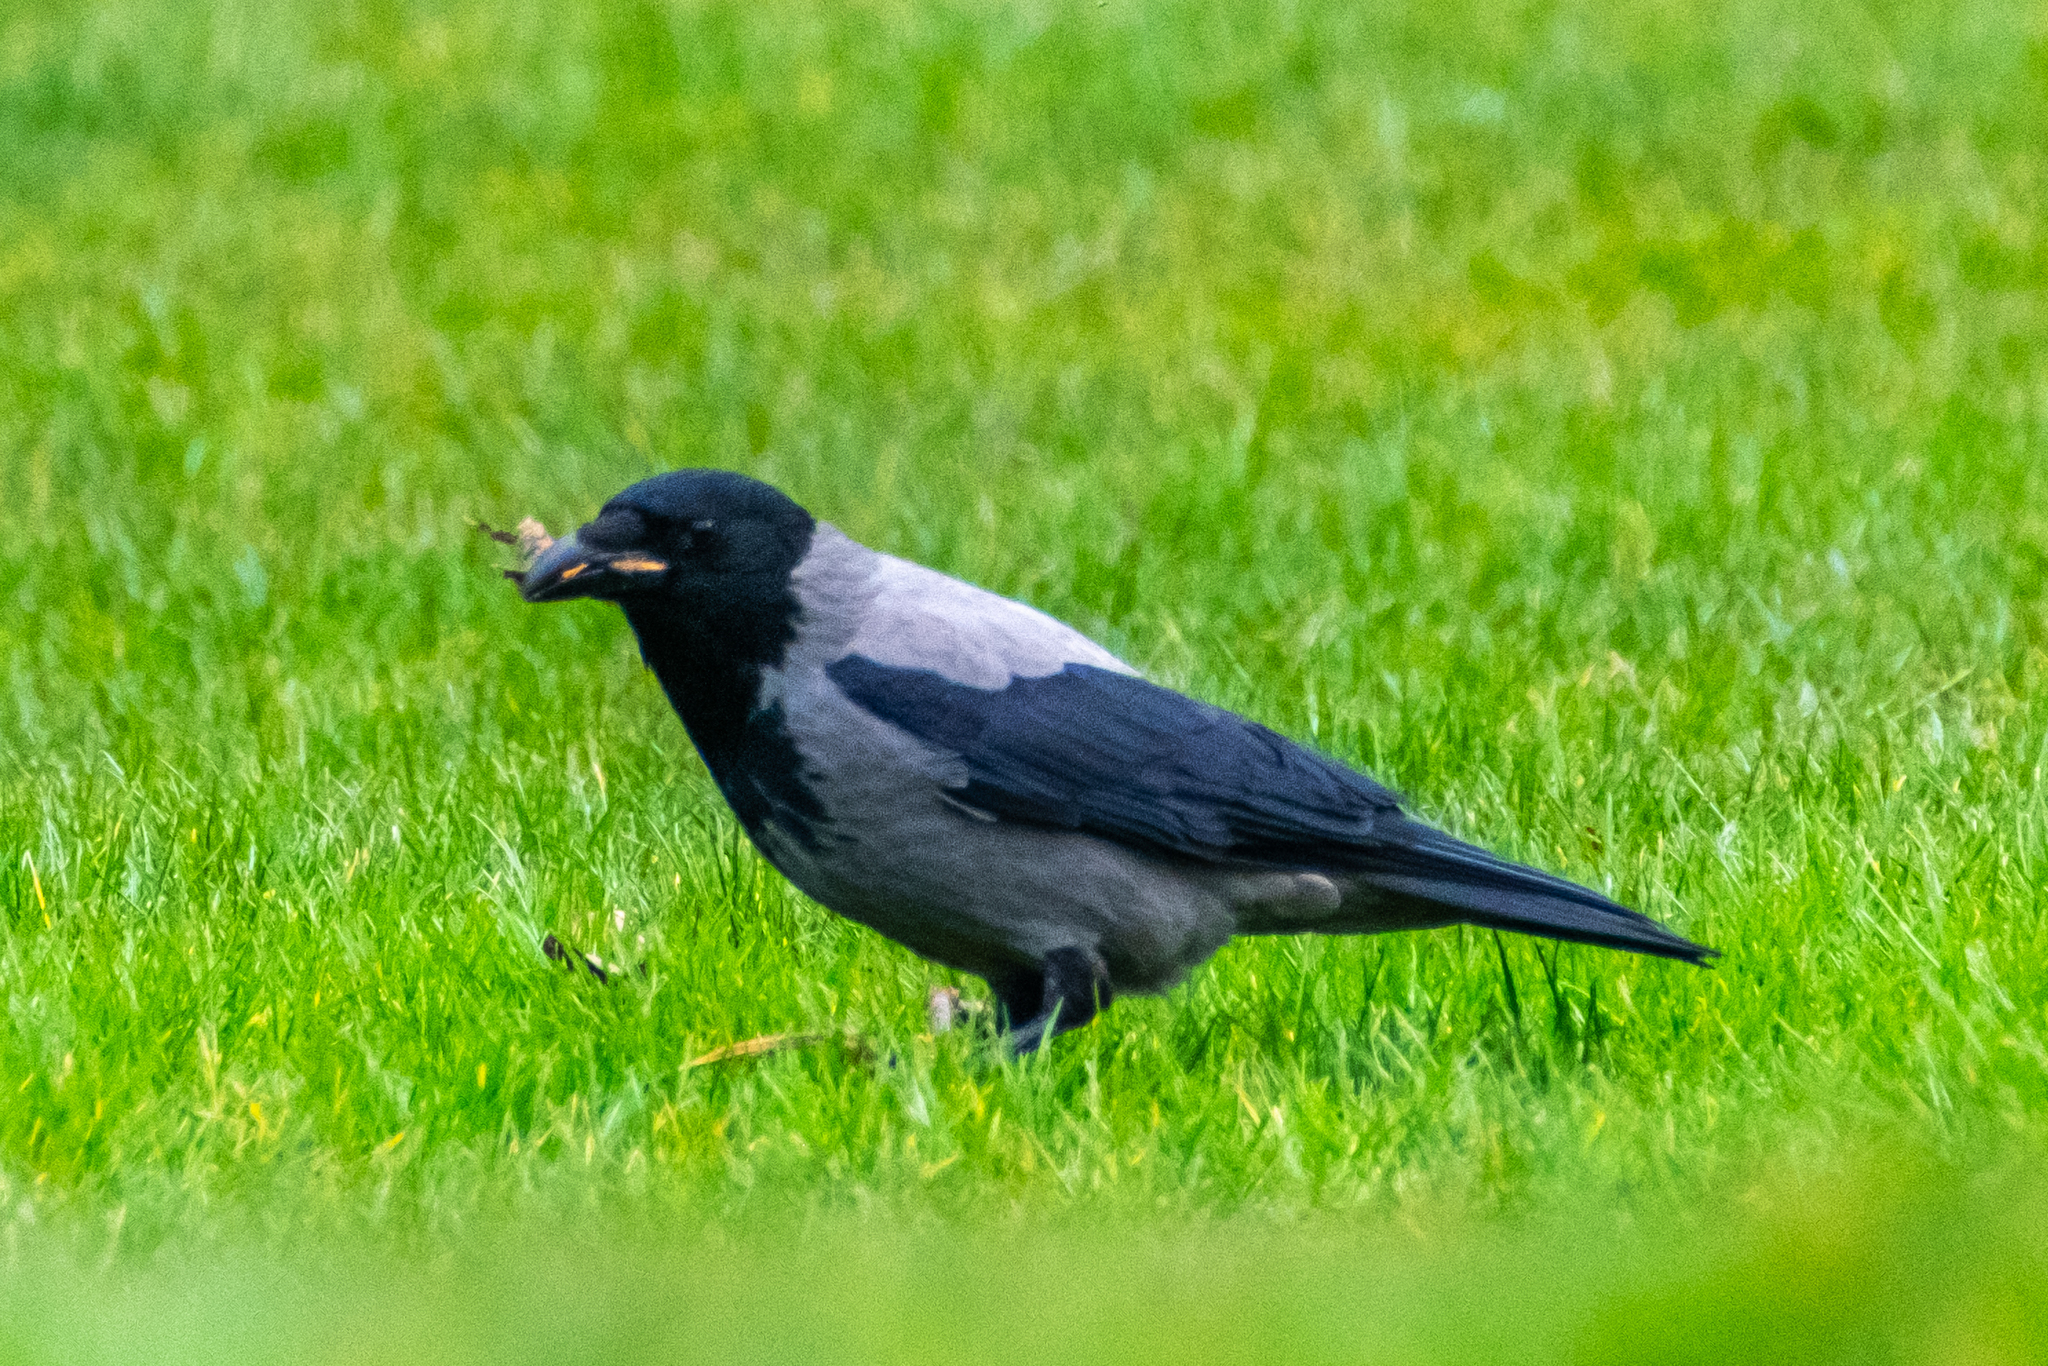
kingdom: Animalia
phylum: Chordata
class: Aves
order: Passeriformes
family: Corvidae
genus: Corvus
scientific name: Corvus cornix
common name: Hooded crow
